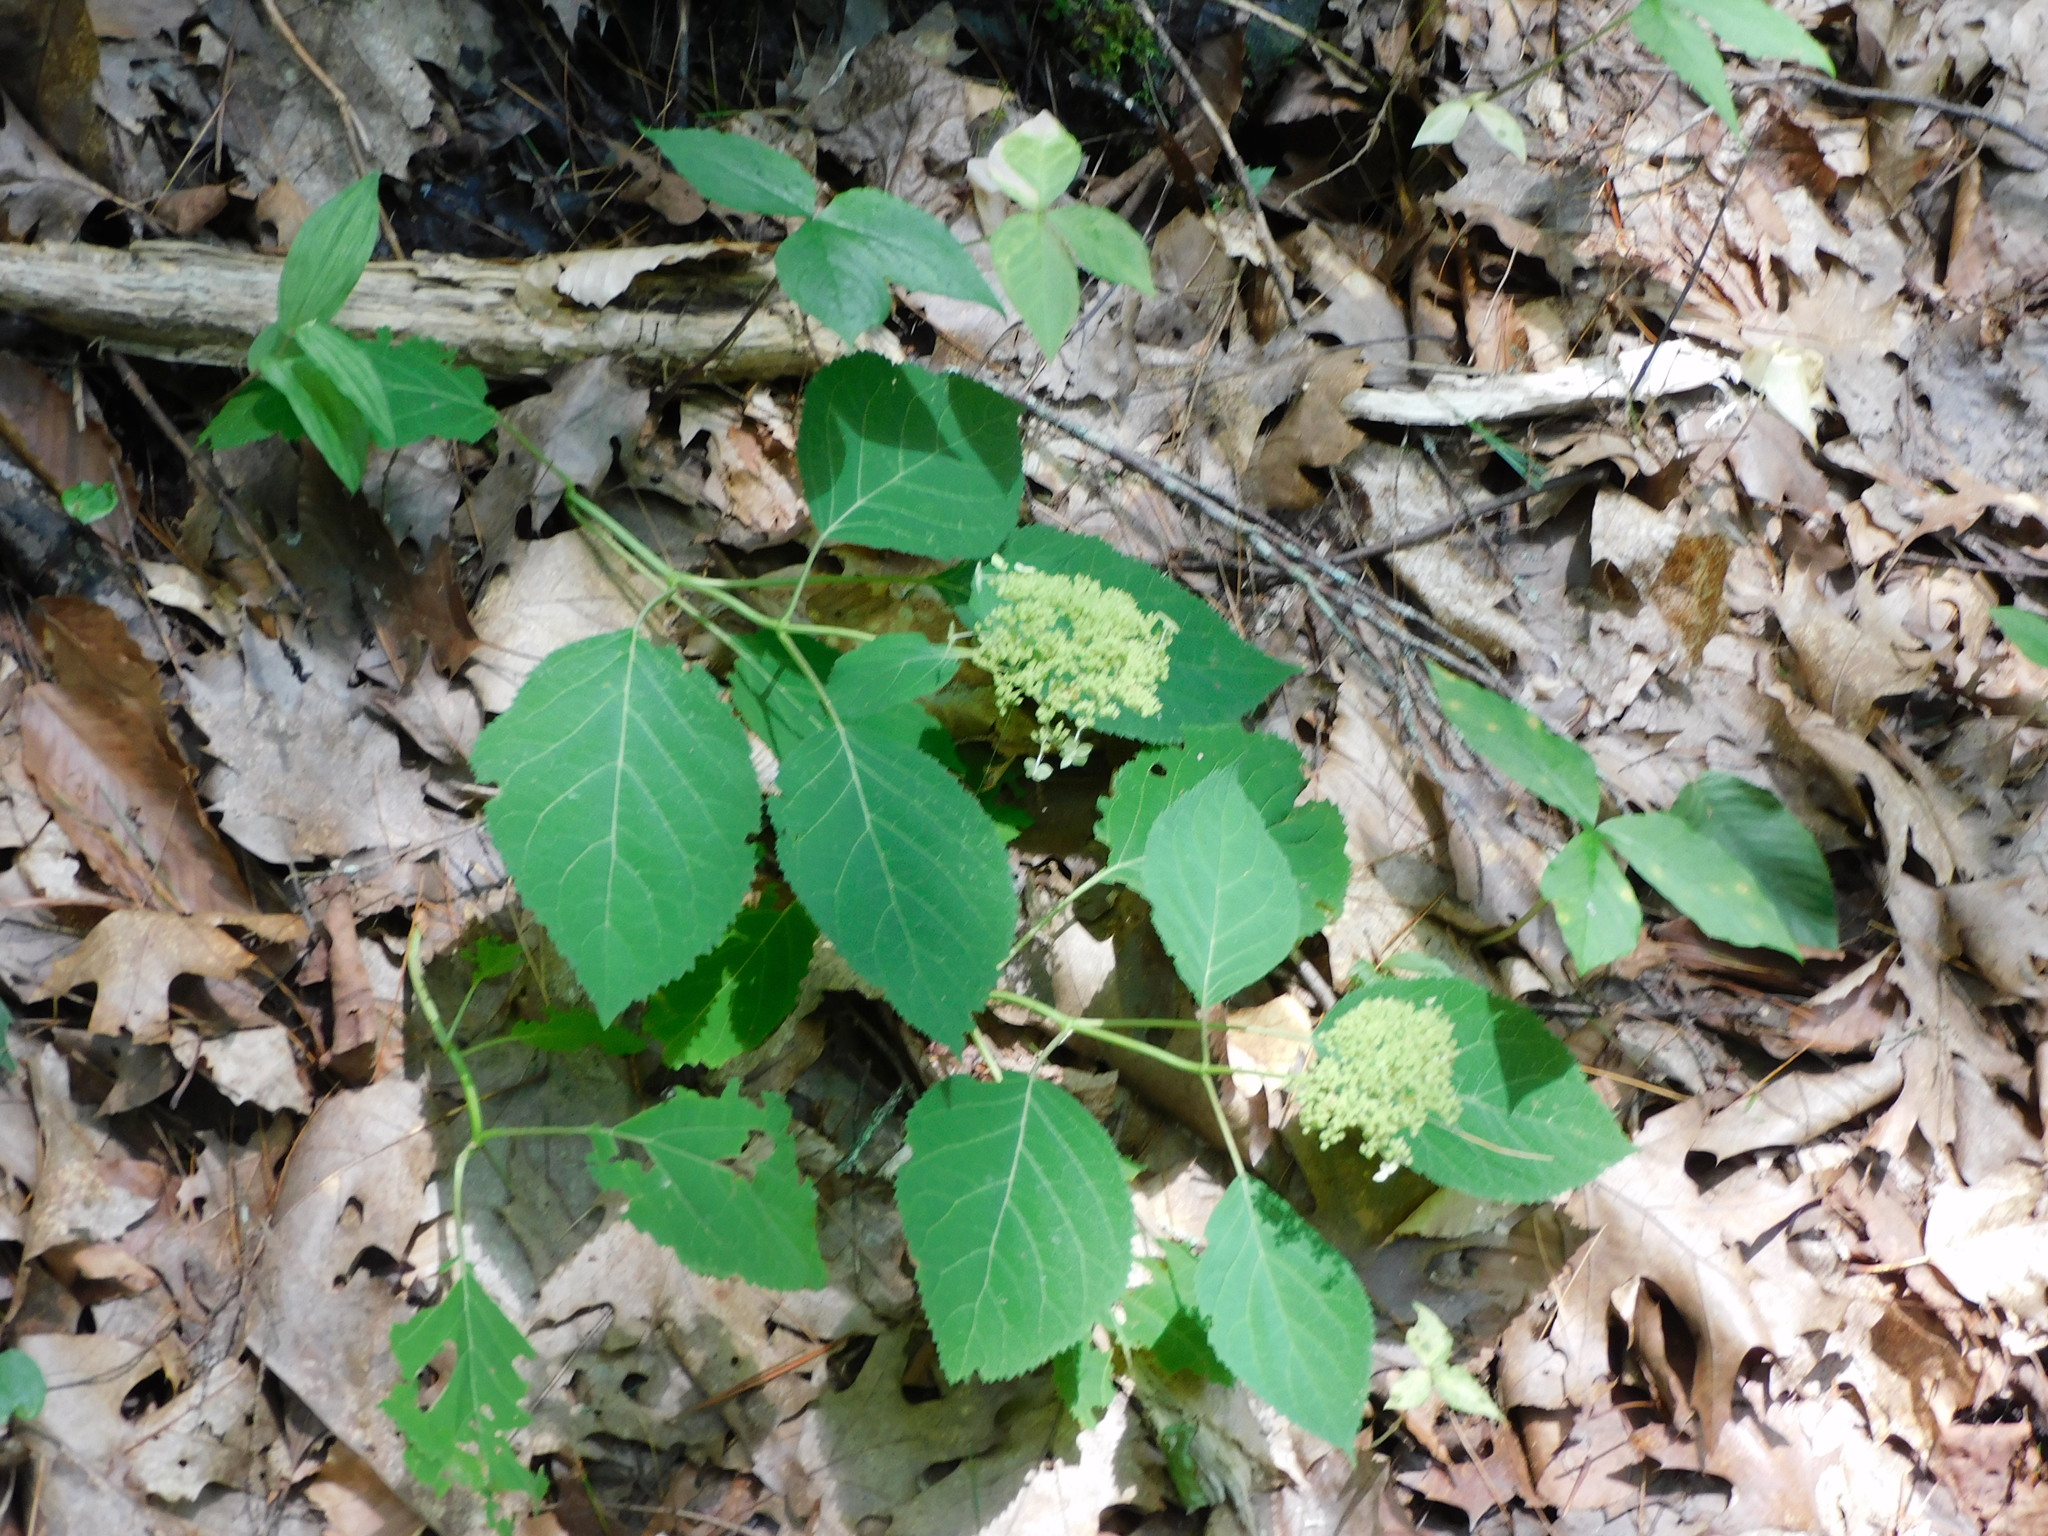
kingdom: Plantae
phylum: Tracheophyta
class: Magnoliopsida
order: Cornales
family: Hydrangeaceae
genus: Hydrangea
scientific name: Hydrangea arborescens
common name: Sevenbark
